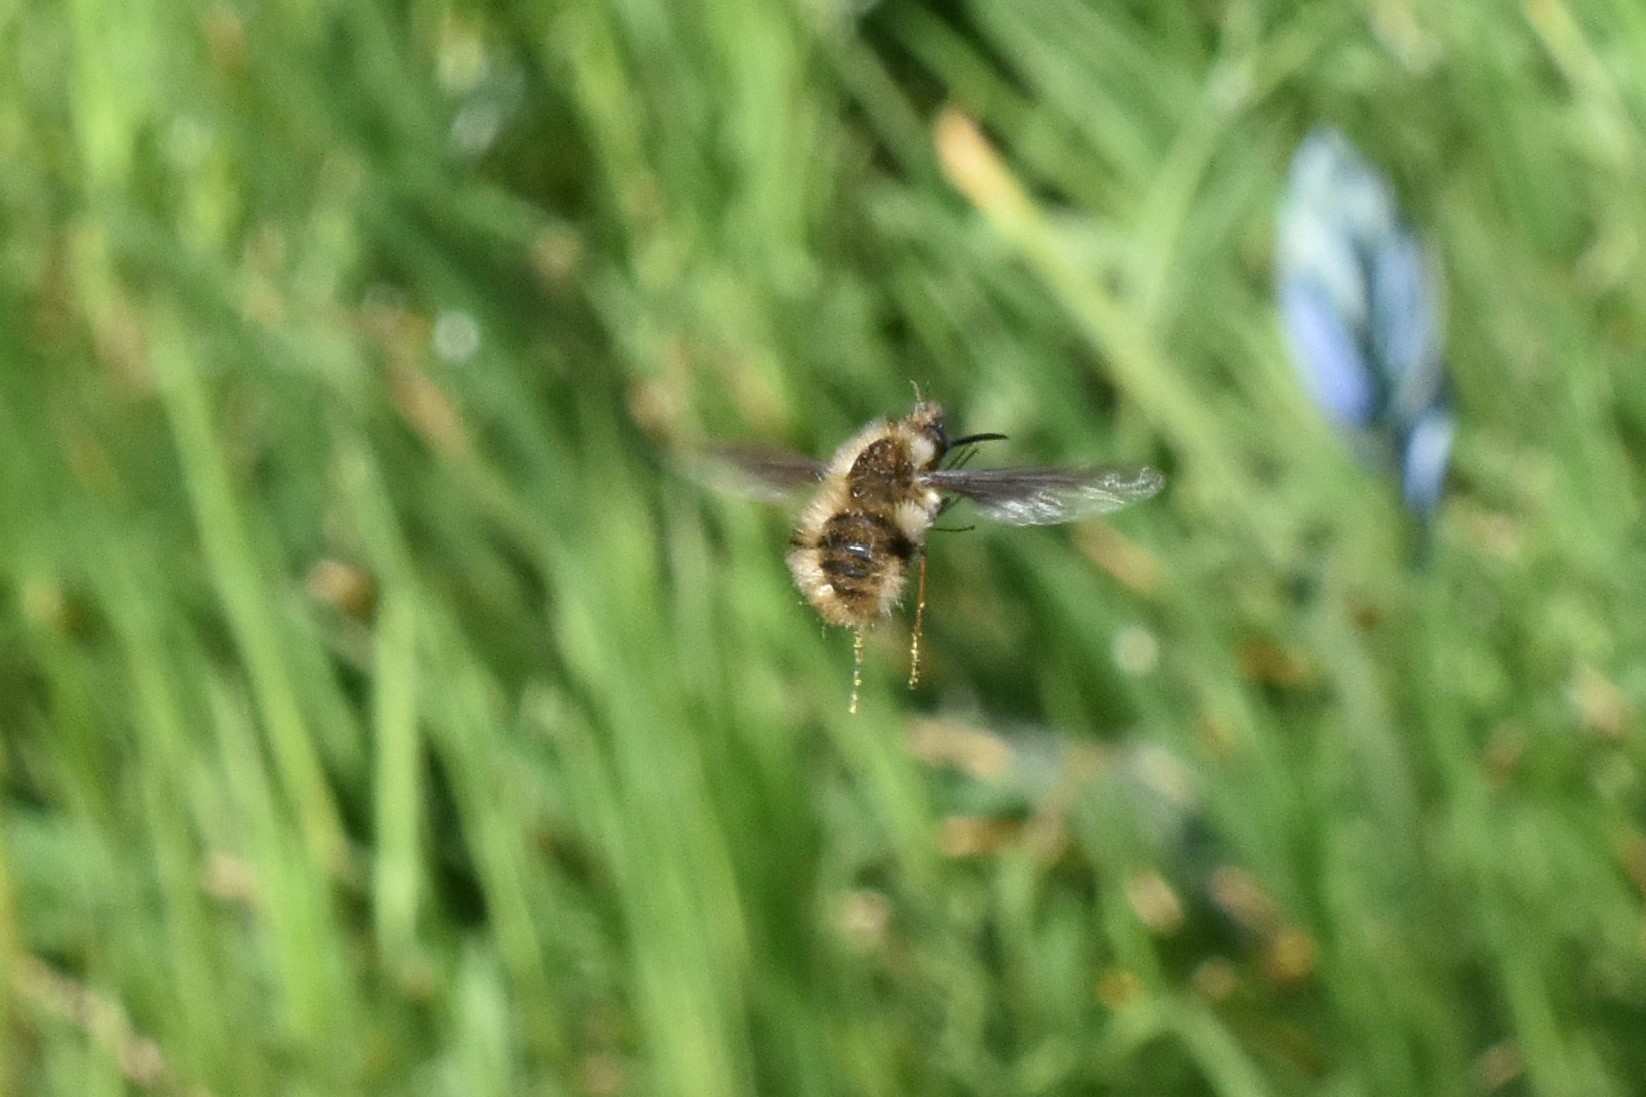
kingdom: Animalia
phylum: Arthropoda
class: Insecta
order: Diptera
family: Bombyliidae
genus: Bombylius
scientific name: Bombylius major
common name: Bee fly
